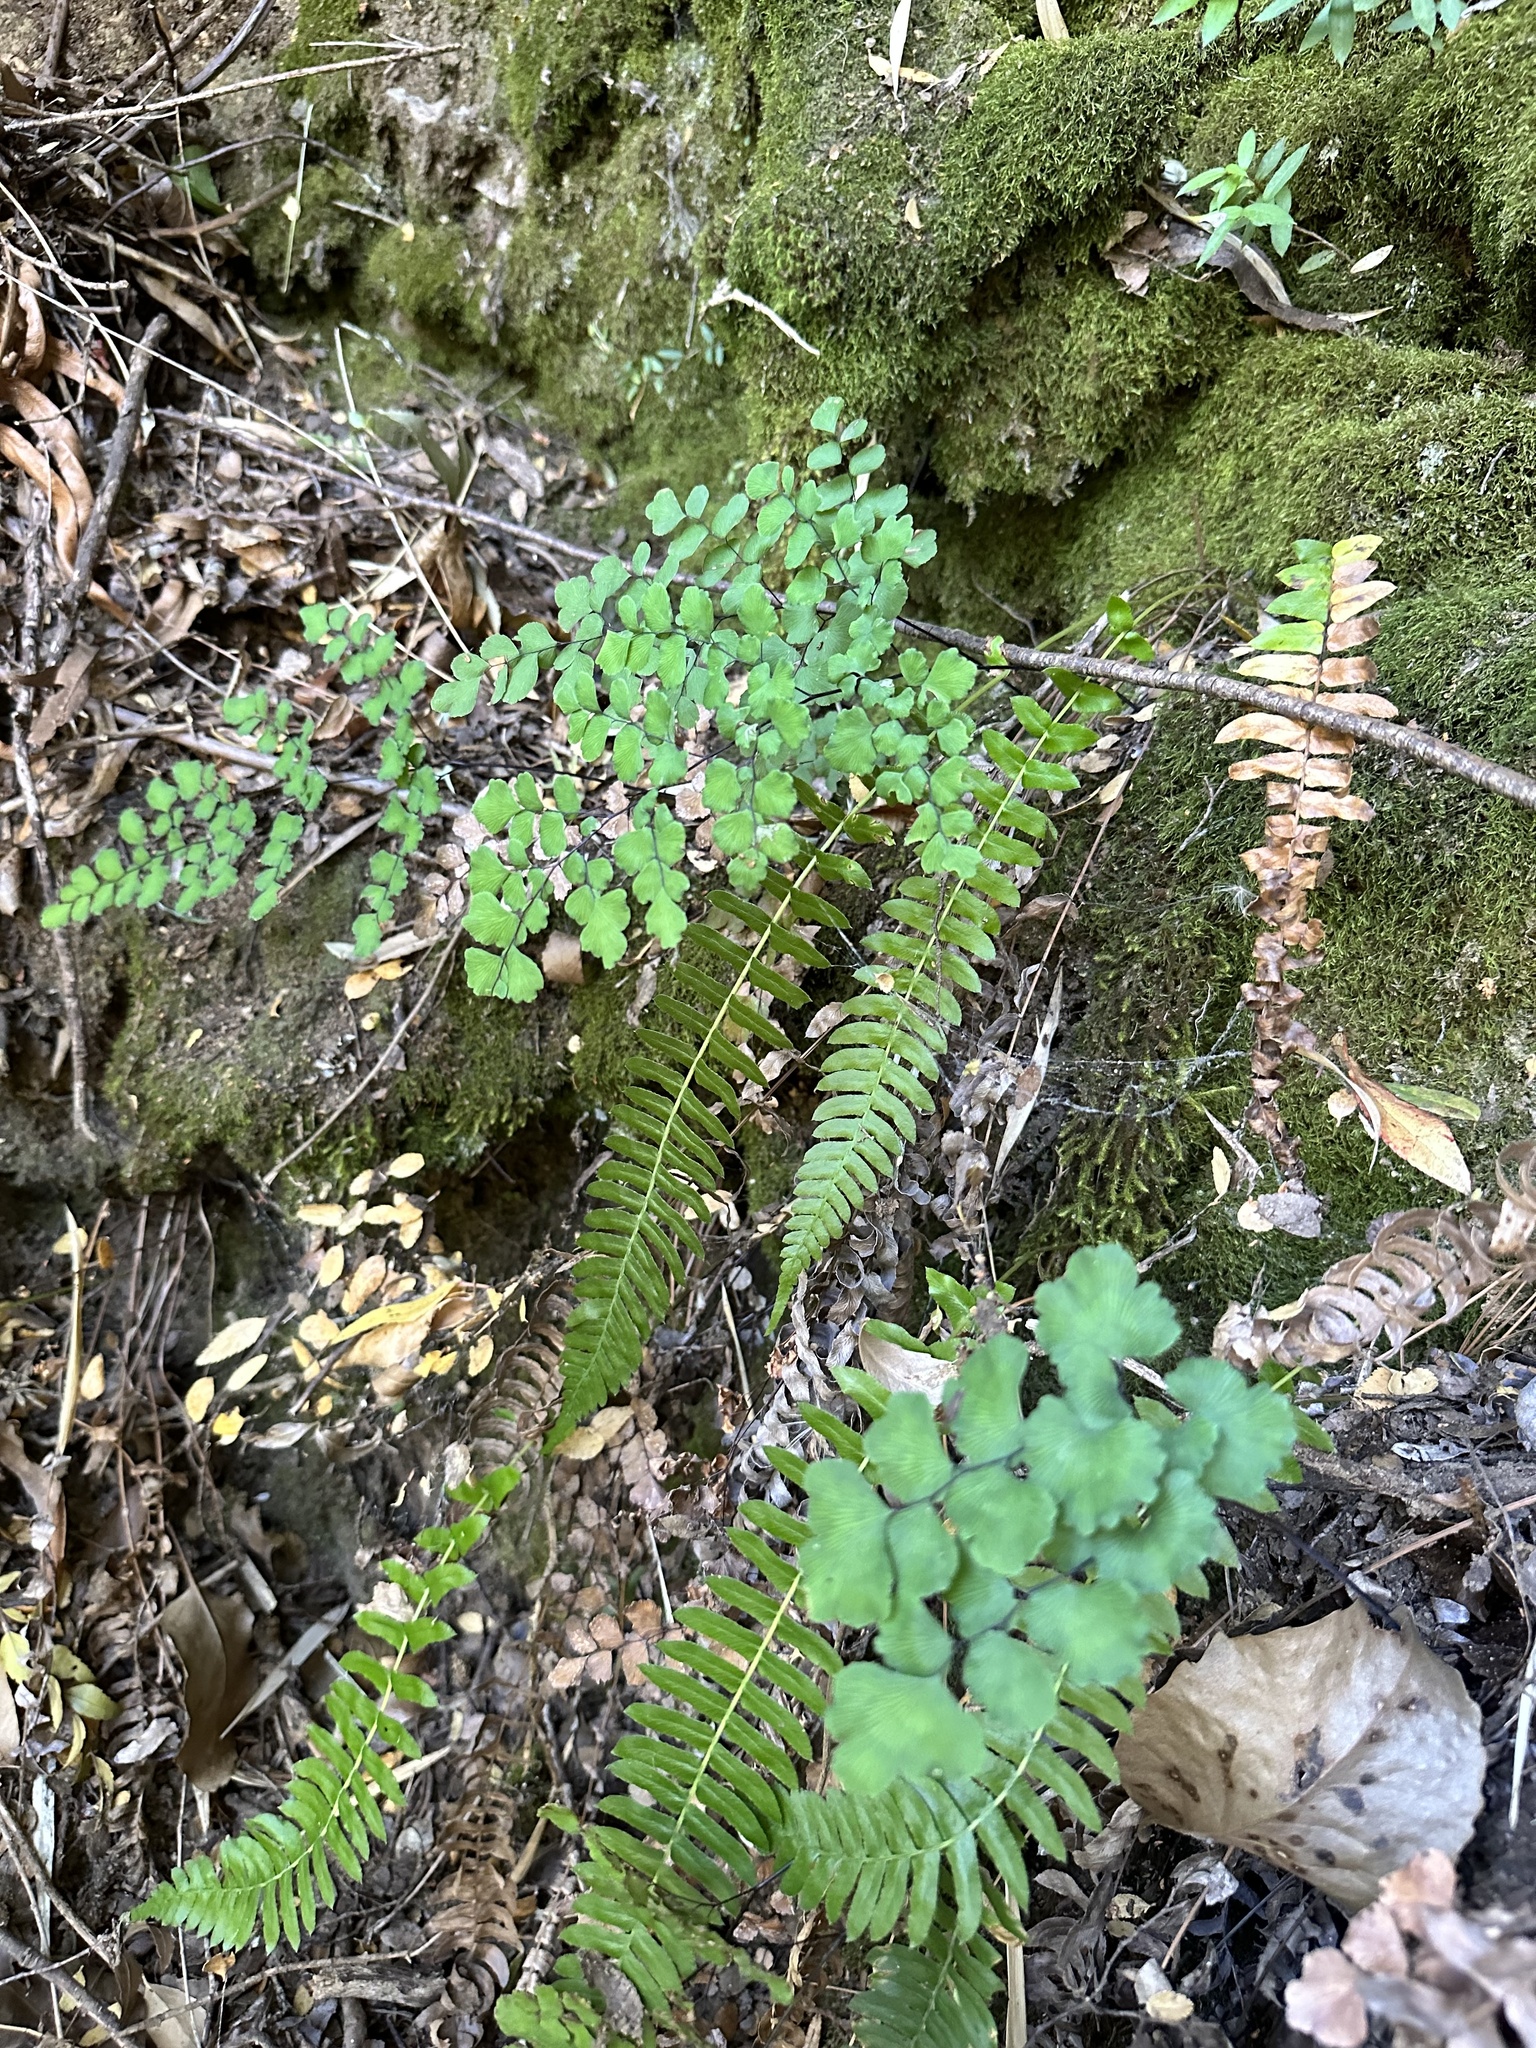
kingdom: Plantae
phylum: Tracheophyta
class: Polypodiopsida
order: Polypodiales
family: Pteridaceae
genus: Adiantum
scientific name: Adiantum chilense
